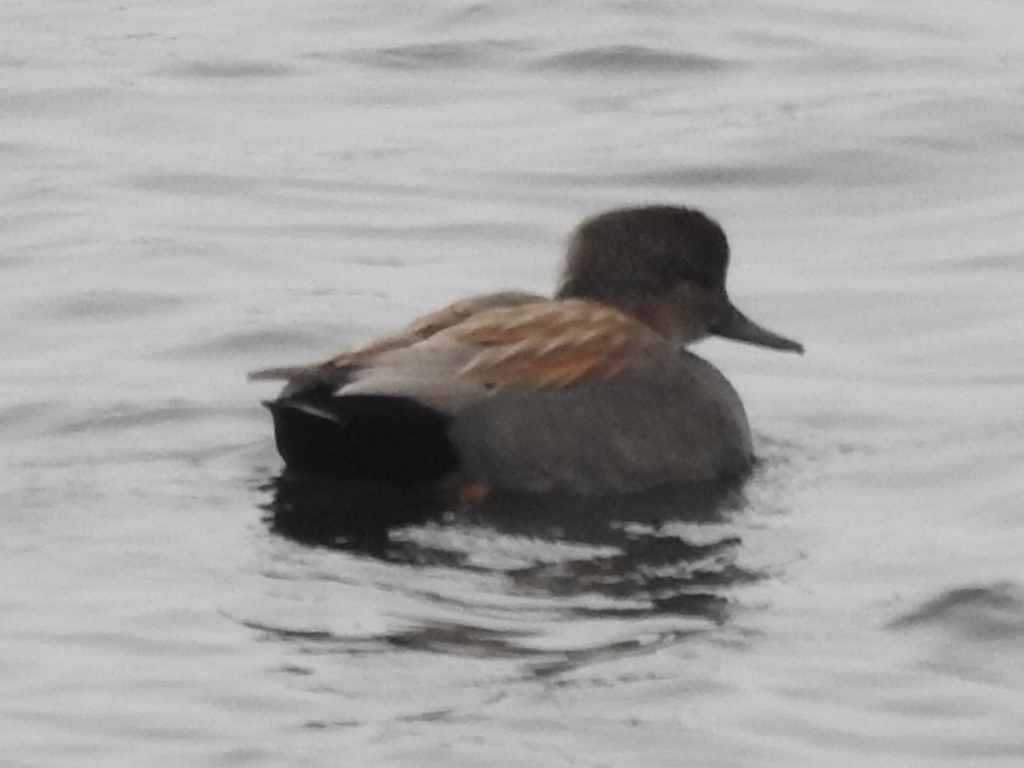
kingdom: Animalia
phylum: Chordata
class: Aves
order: Anseriformes
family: Anatidae
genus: Mareca
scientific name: Mareca strepera
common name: Gadwall
